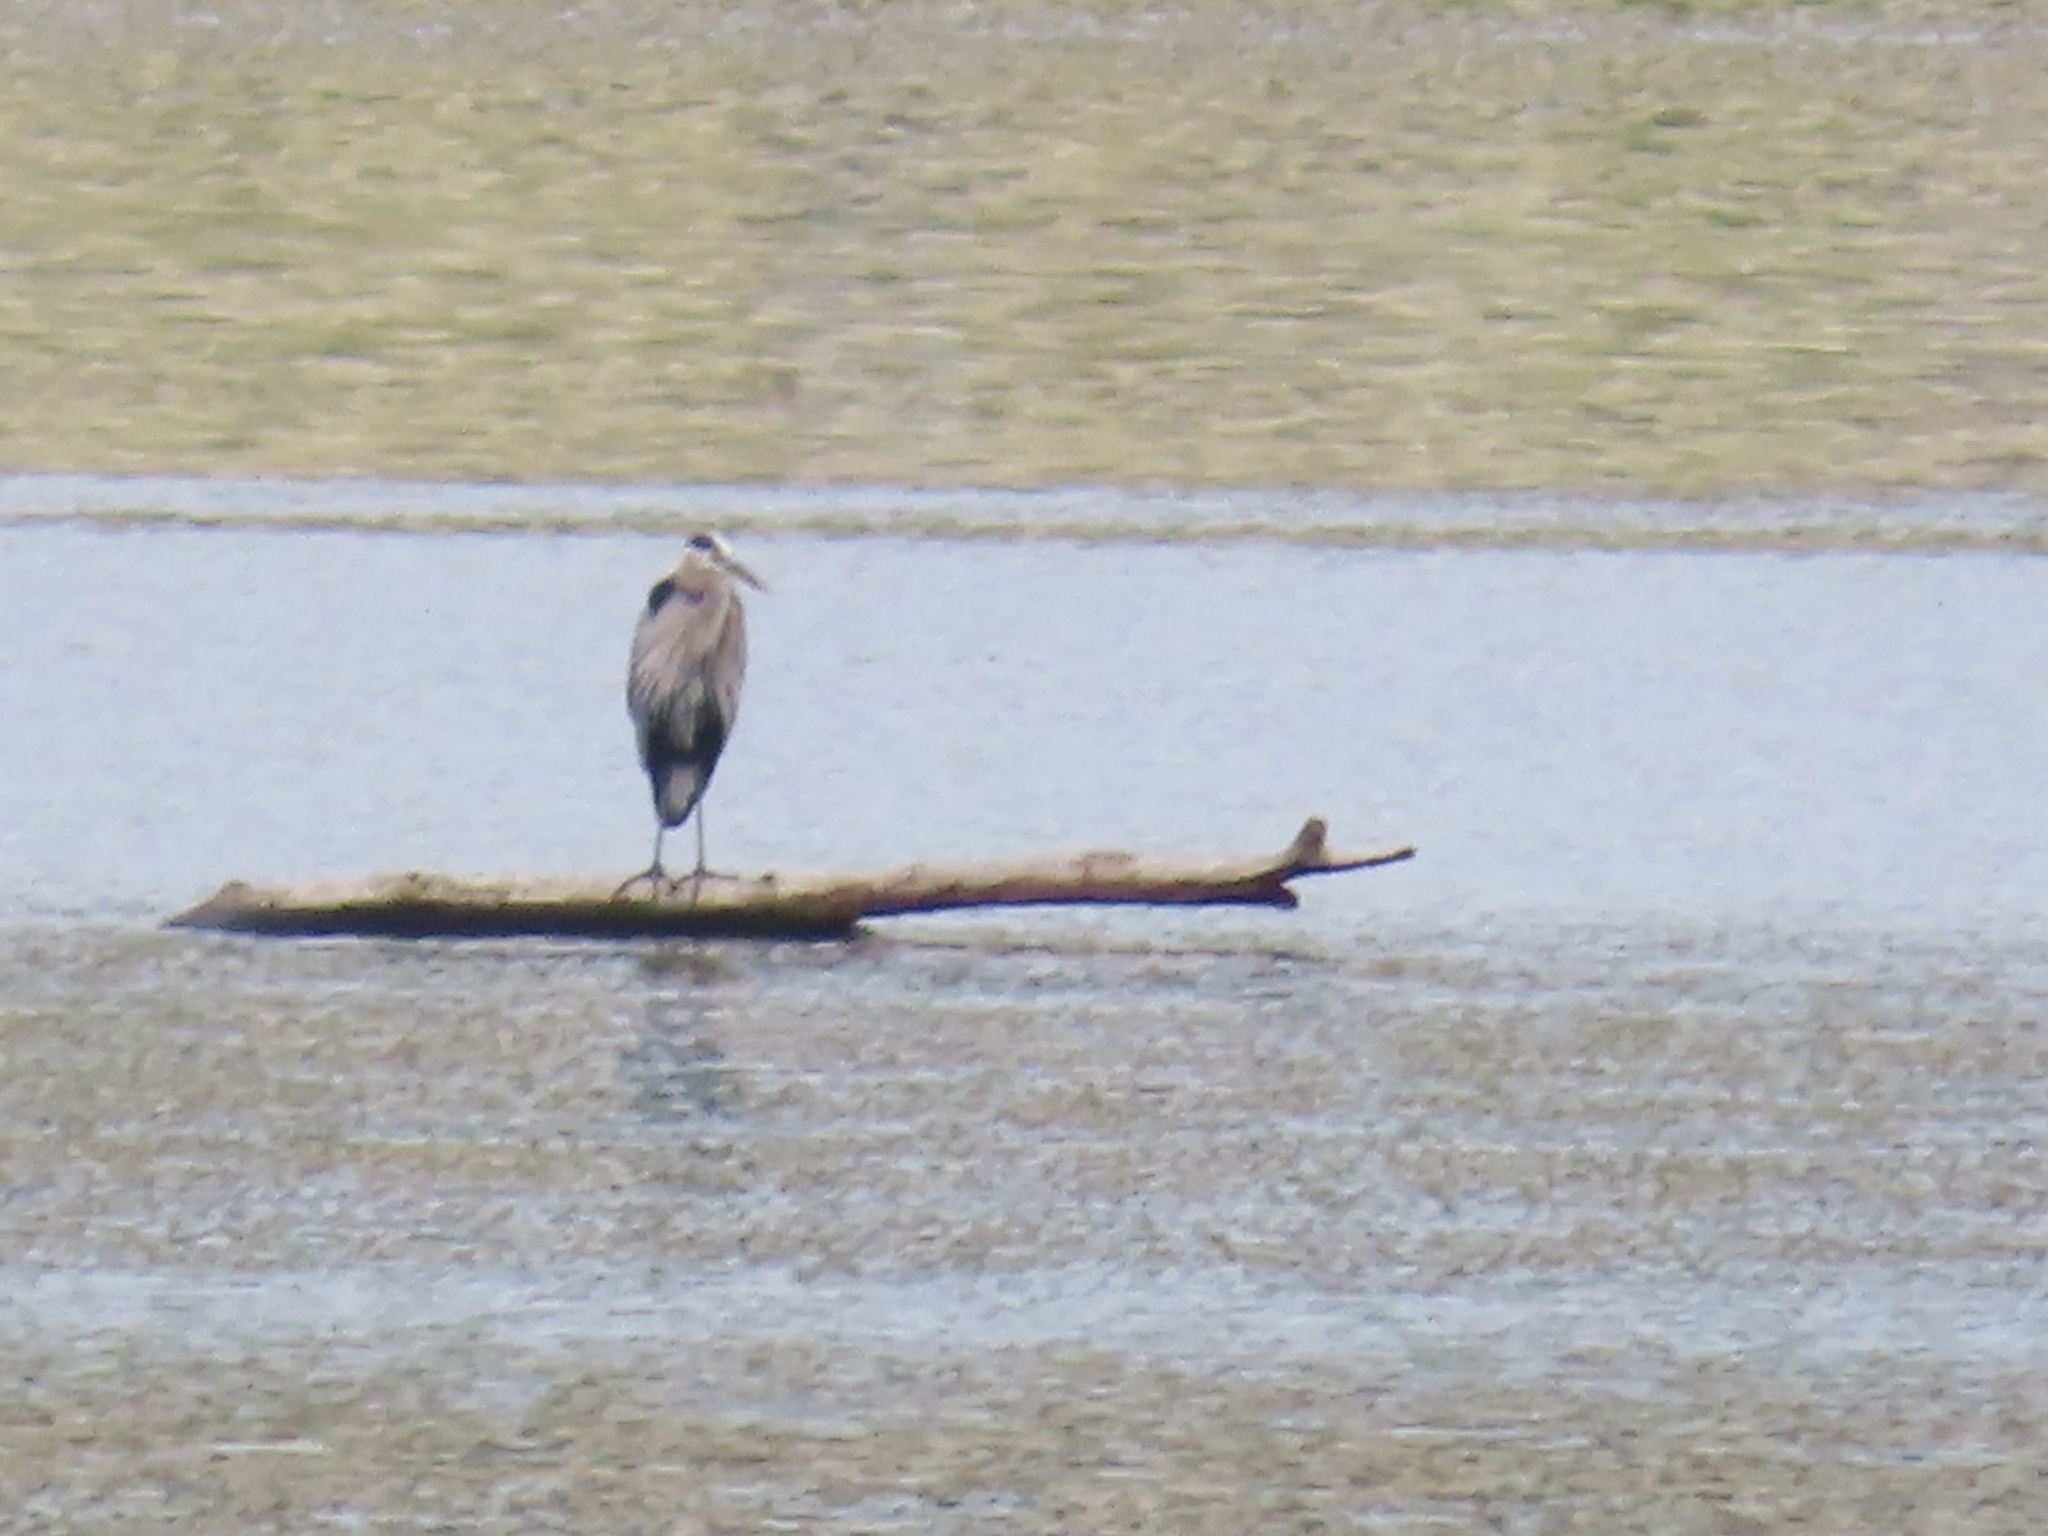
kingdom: Animalia
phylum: Chordata
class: Aves
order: Pelecaniformes
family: Ardeidae
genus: Ardea
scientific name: Ardea herodias
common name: Great blue heron
